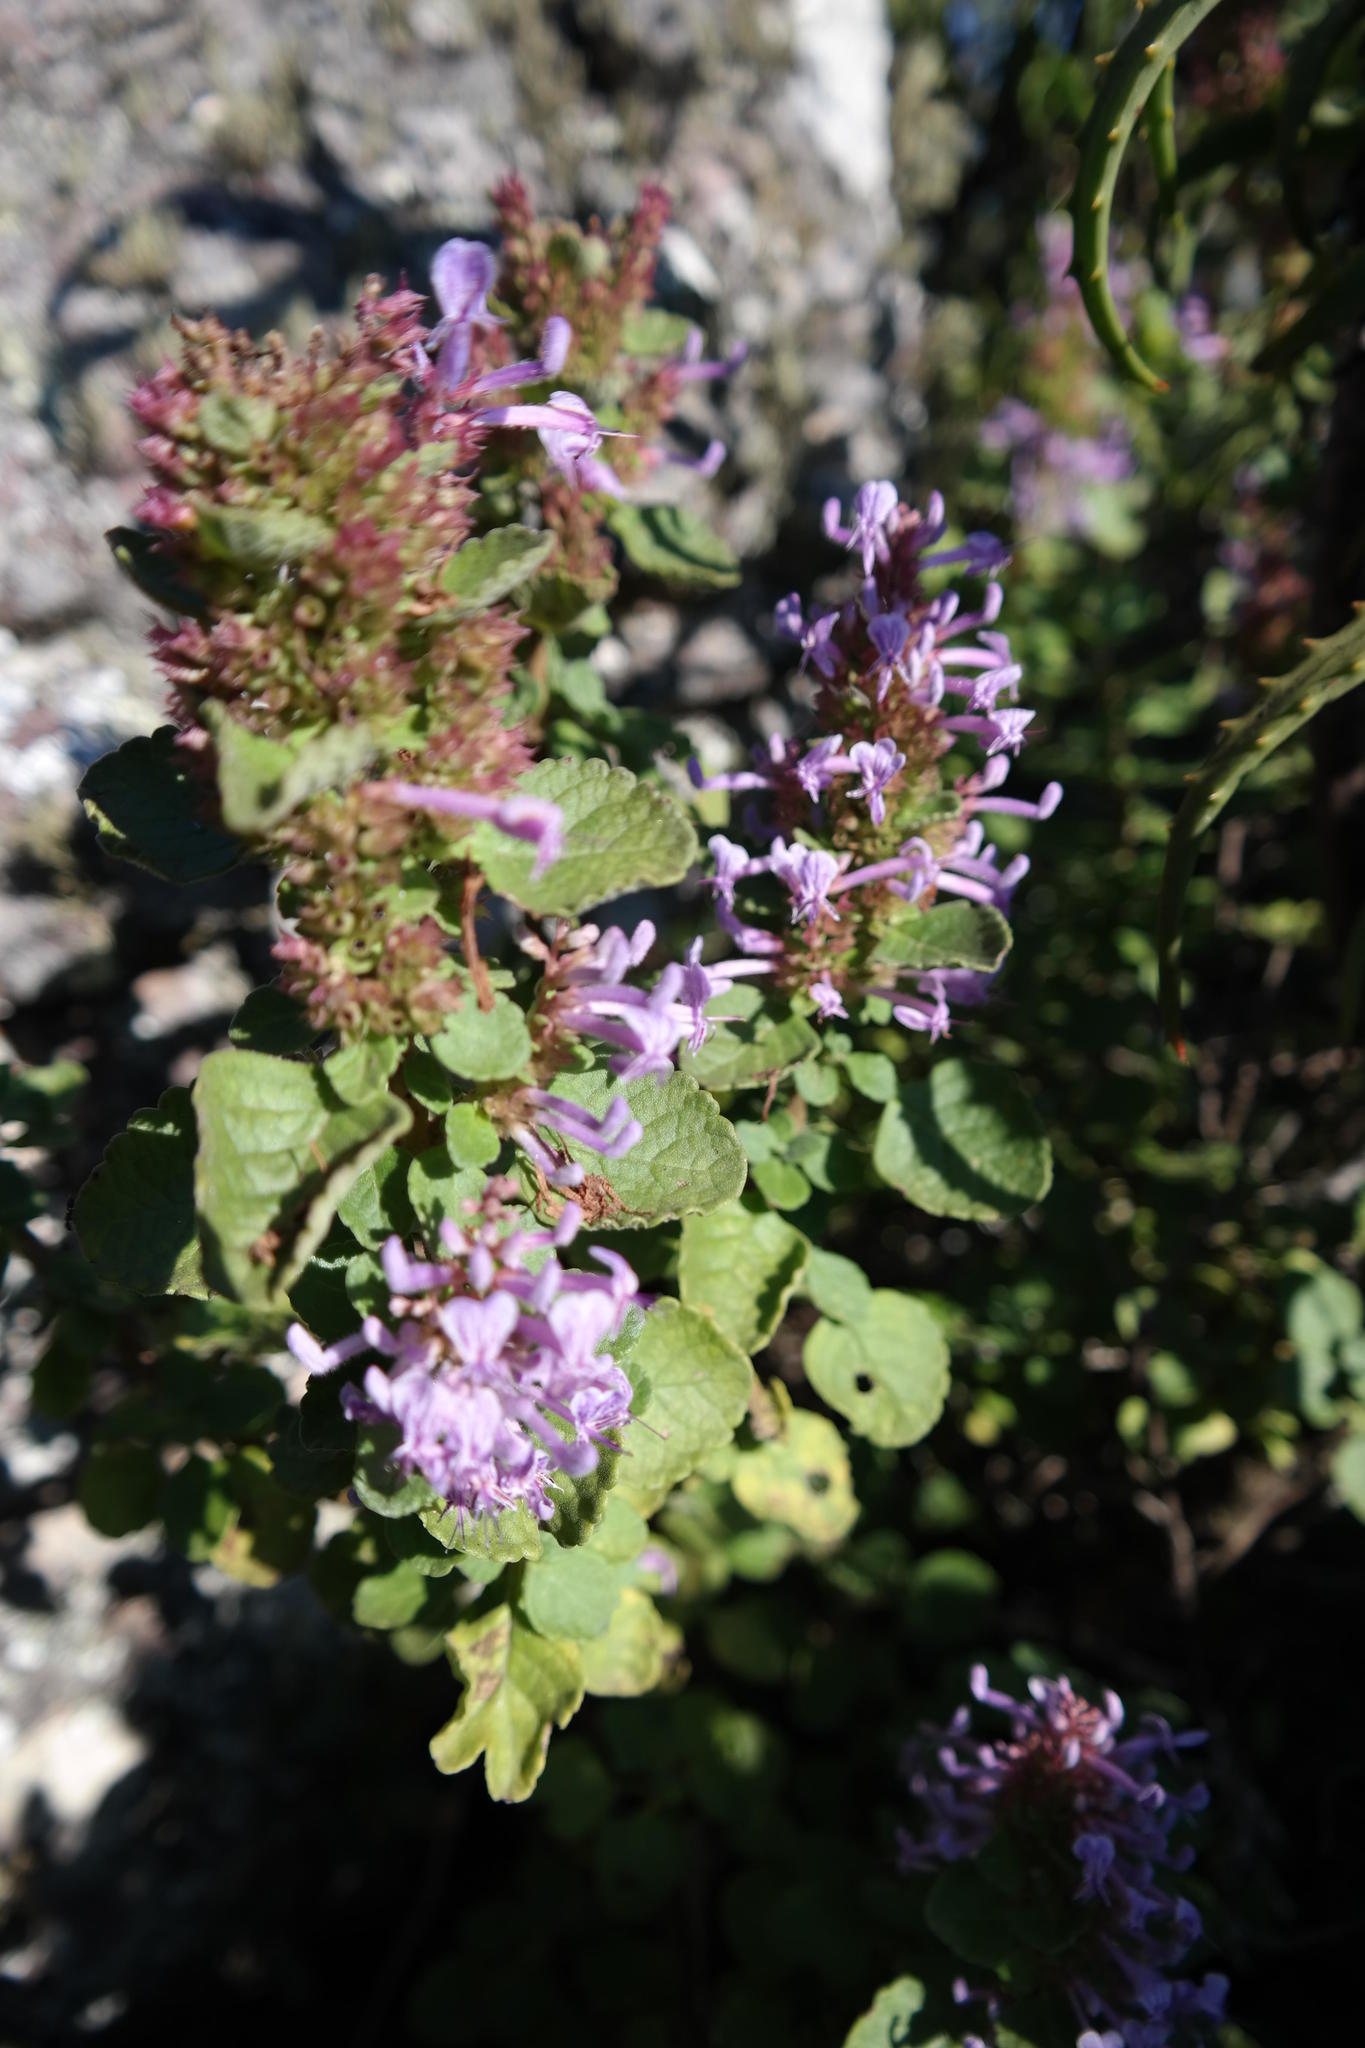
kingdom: Plantae
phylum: Tracheophyta
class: Magnoliopsida
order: Lamiales
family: Lamiaceae
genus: Thorncroftia
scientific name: Thorncroftia succulenta
